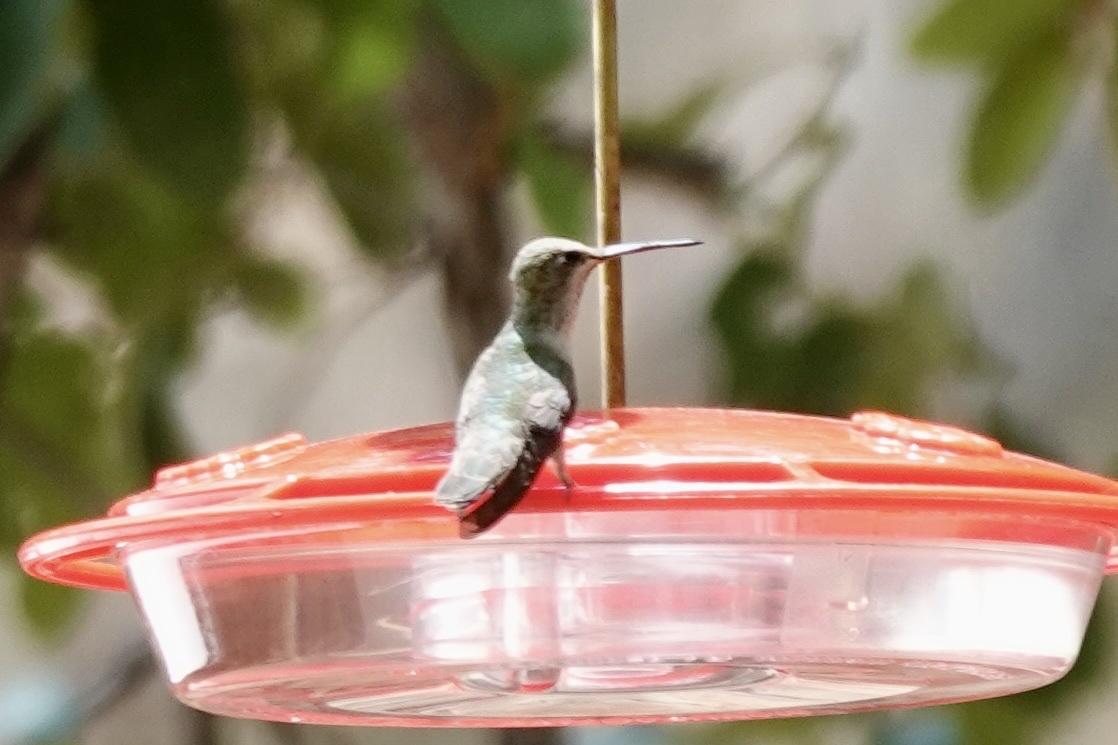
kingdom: Animalia
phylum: Chordata
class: Aves
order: Apodiformes
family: Trochilidae
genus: Cynanthus
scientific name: Cynanthus latirostris
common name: Broad-billed hummingbird
